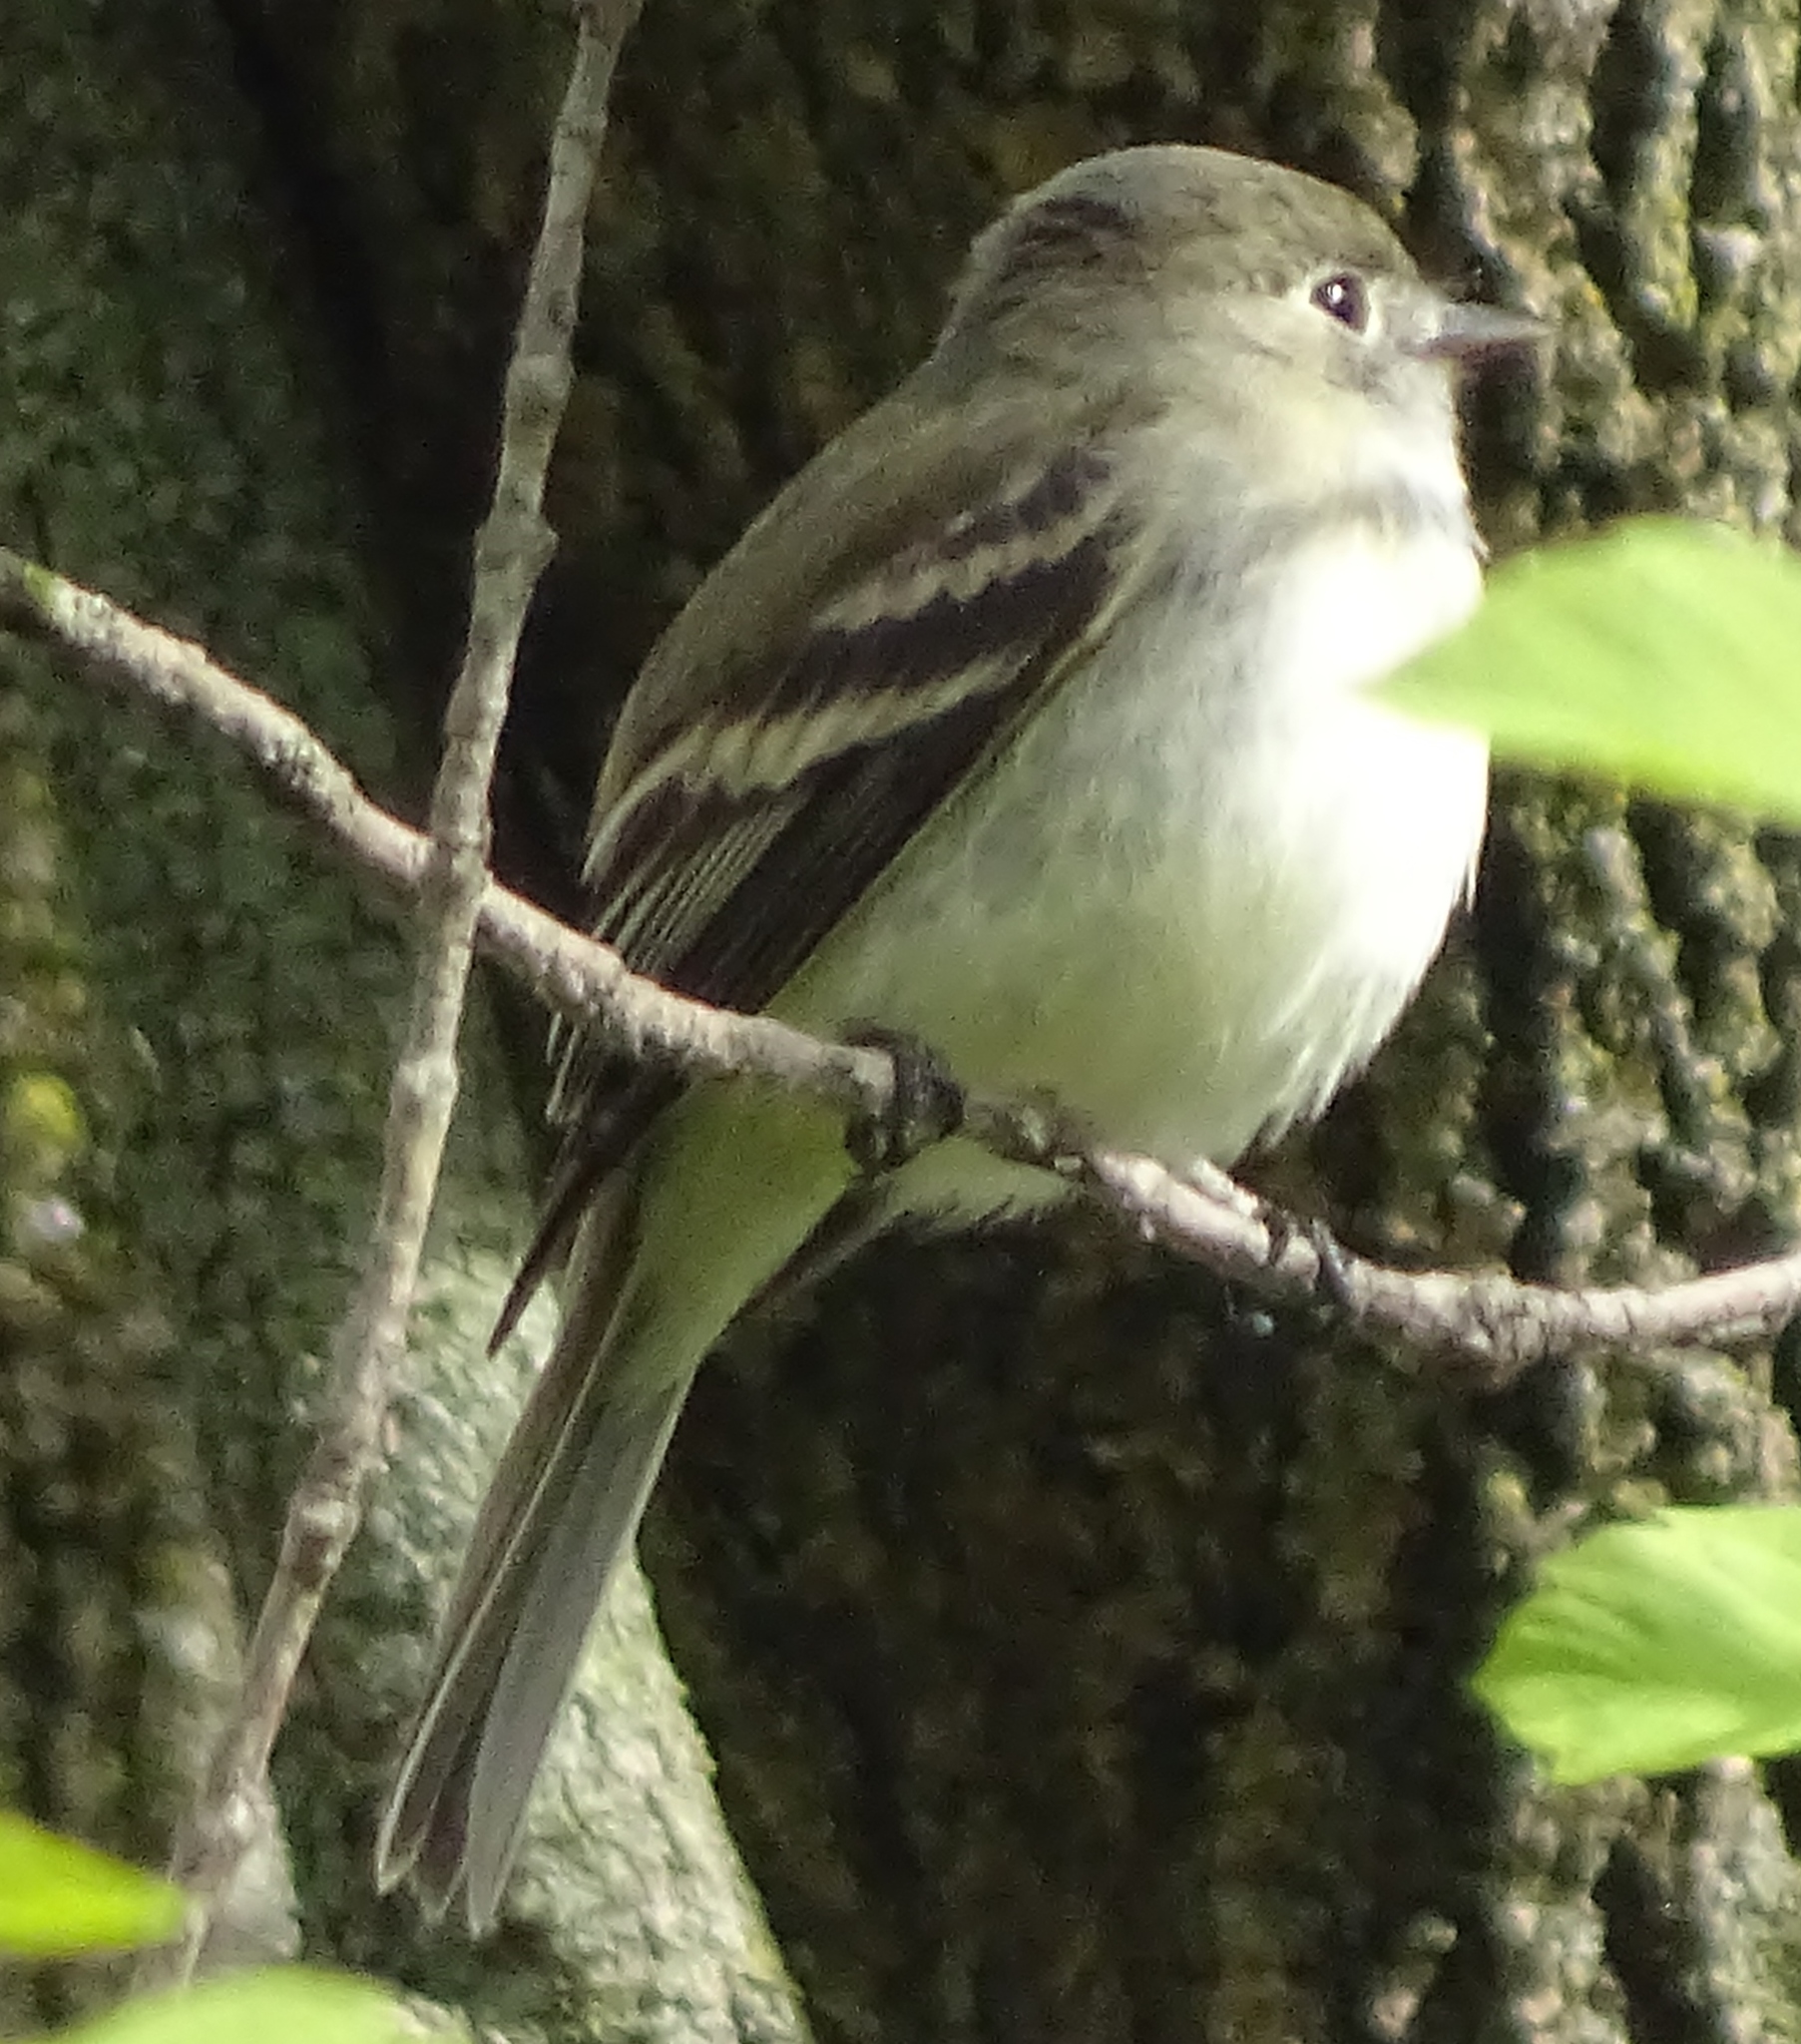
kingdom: Animalia
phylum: Chordata
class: Aves
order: Passeriformes
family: Tyrannidae
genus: Empidonax
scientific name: Empidonax minimus
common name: Least flycatcher
